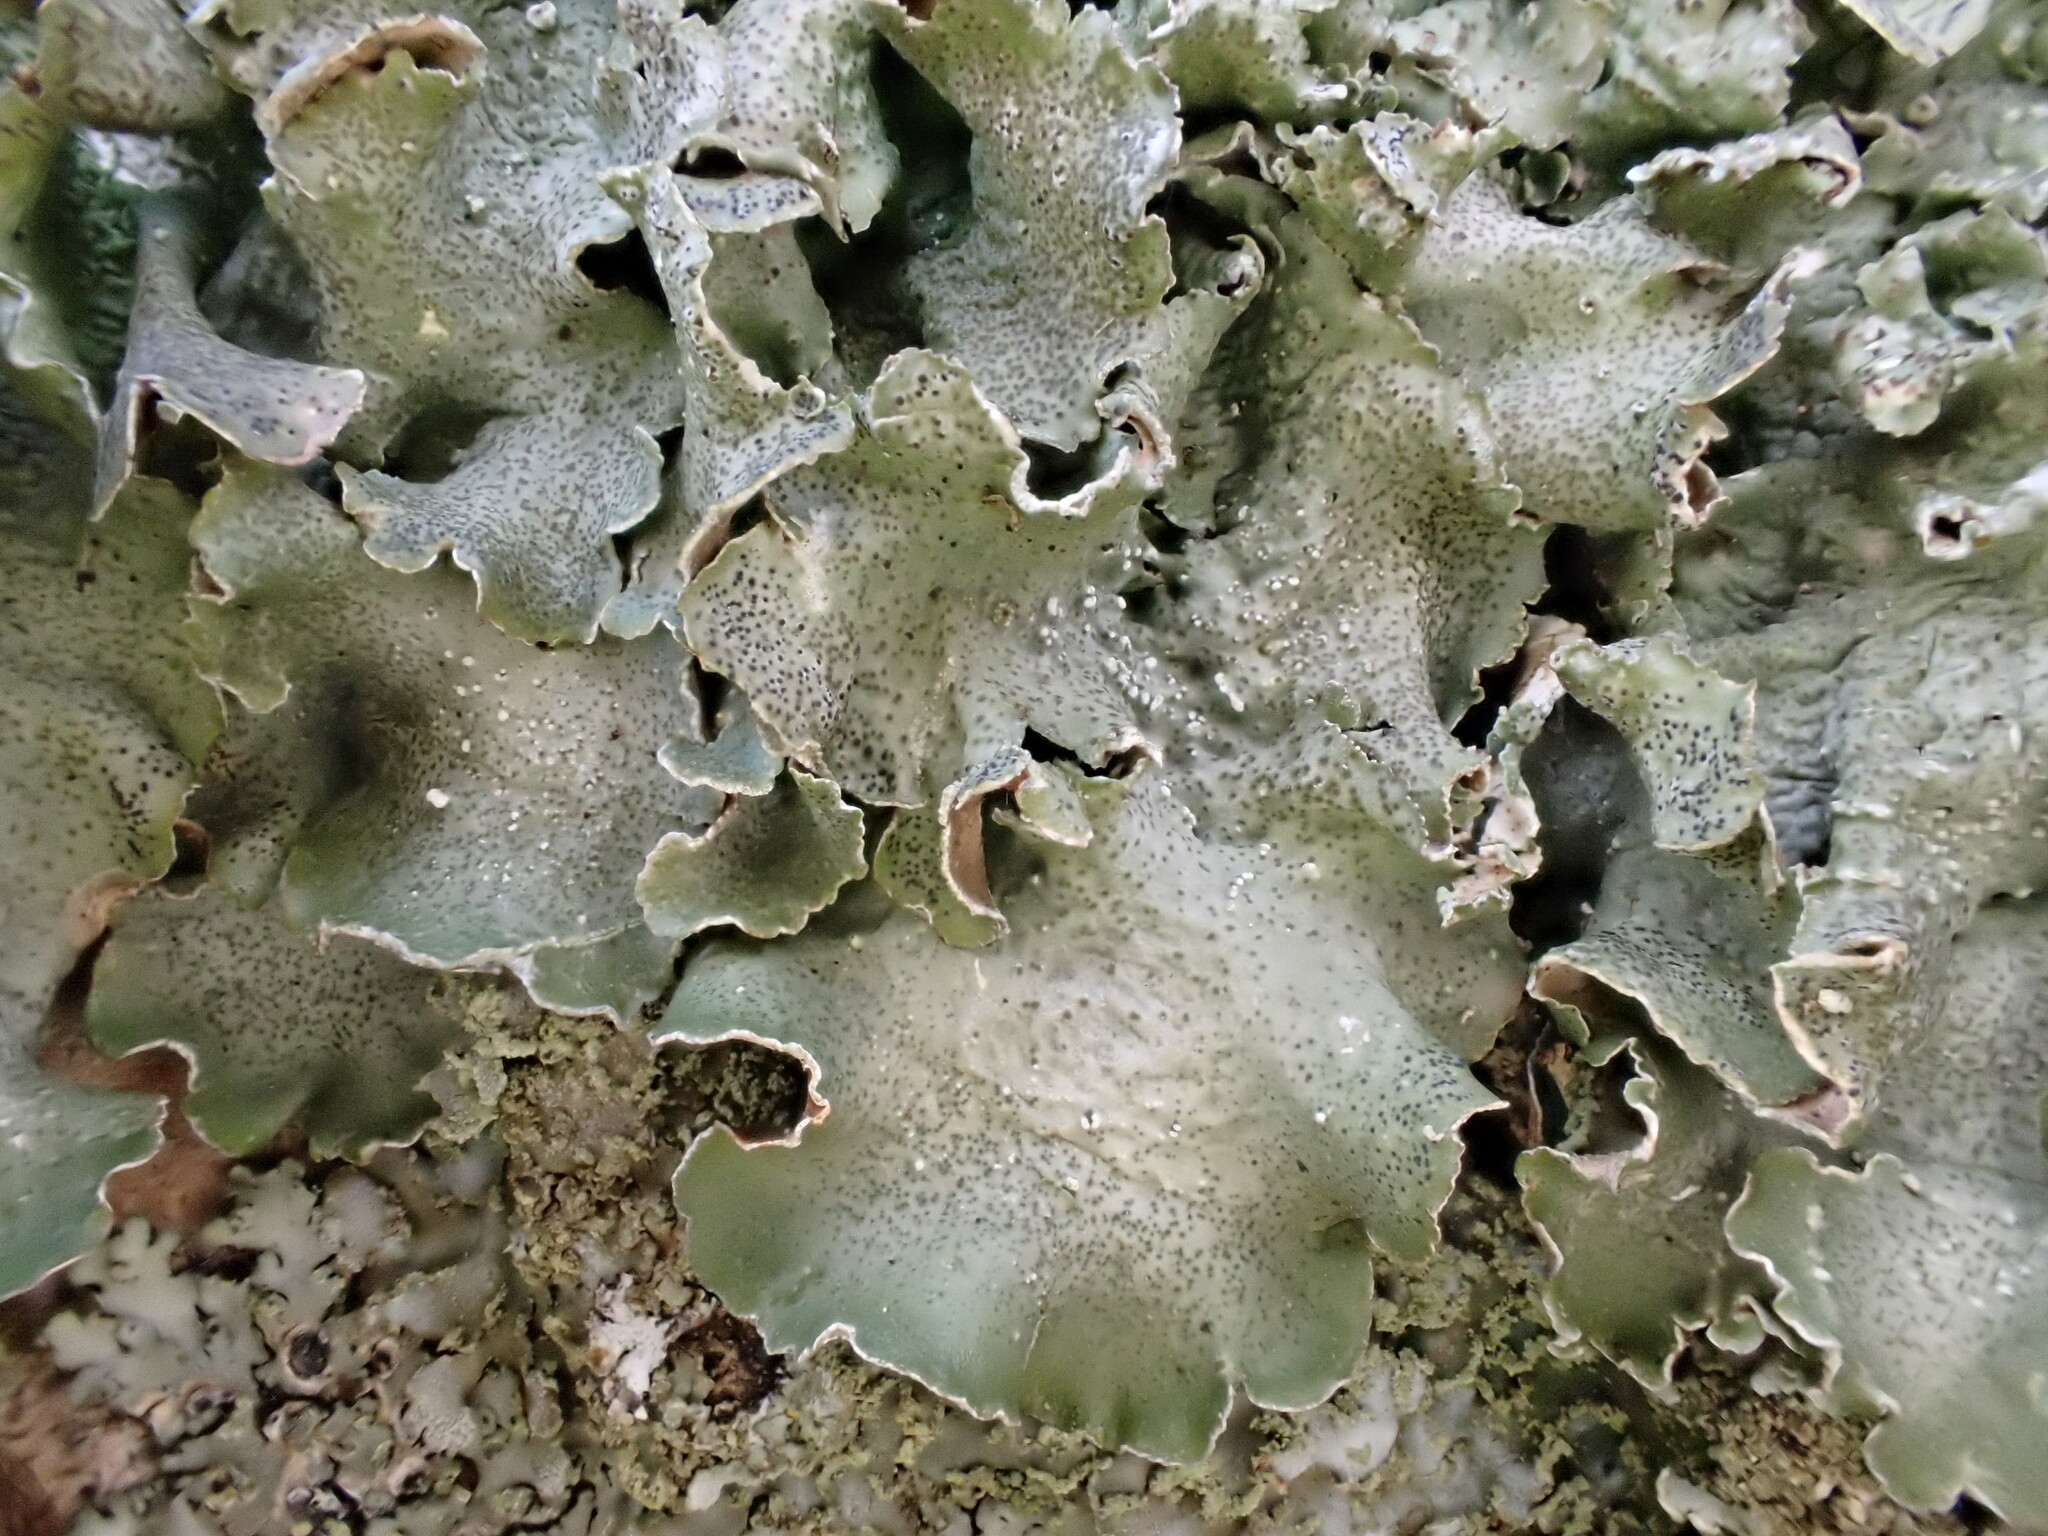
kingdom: Fungi
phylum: Ascomycota
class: Lecanoromycetes
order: Lecanorales
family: Parmeliaceae
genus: Pleurosticta
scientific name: Pleurosticta acetabulum
